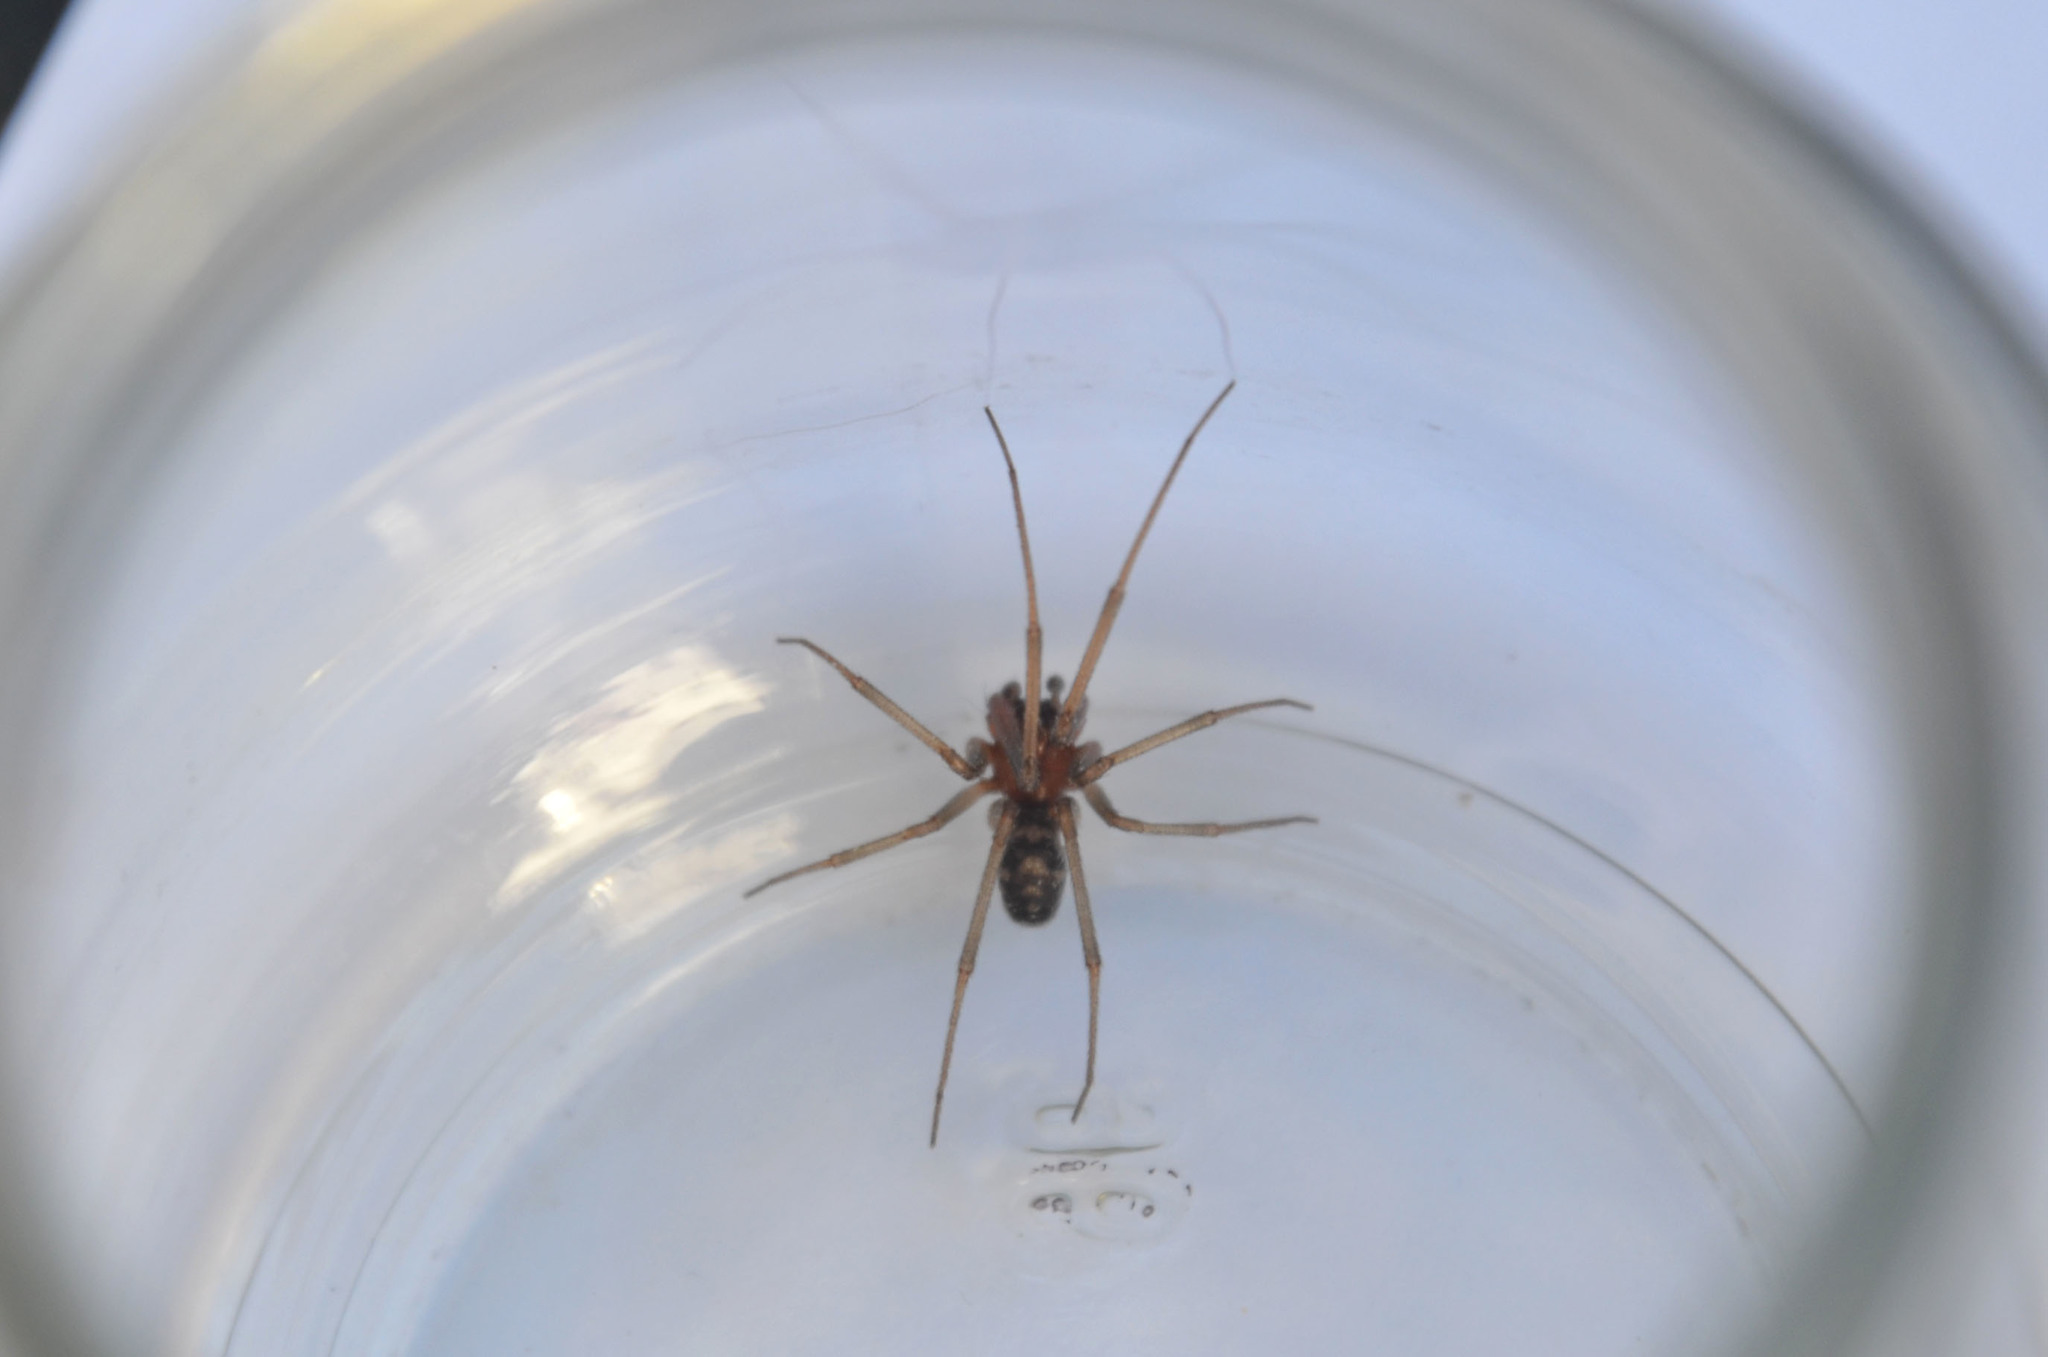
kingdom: Animalia
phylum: Arthropoda
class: Arachnida
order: Araneae
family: Theridiidae
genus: Steatoda
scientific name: Steatoda grossa
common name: False black widow
